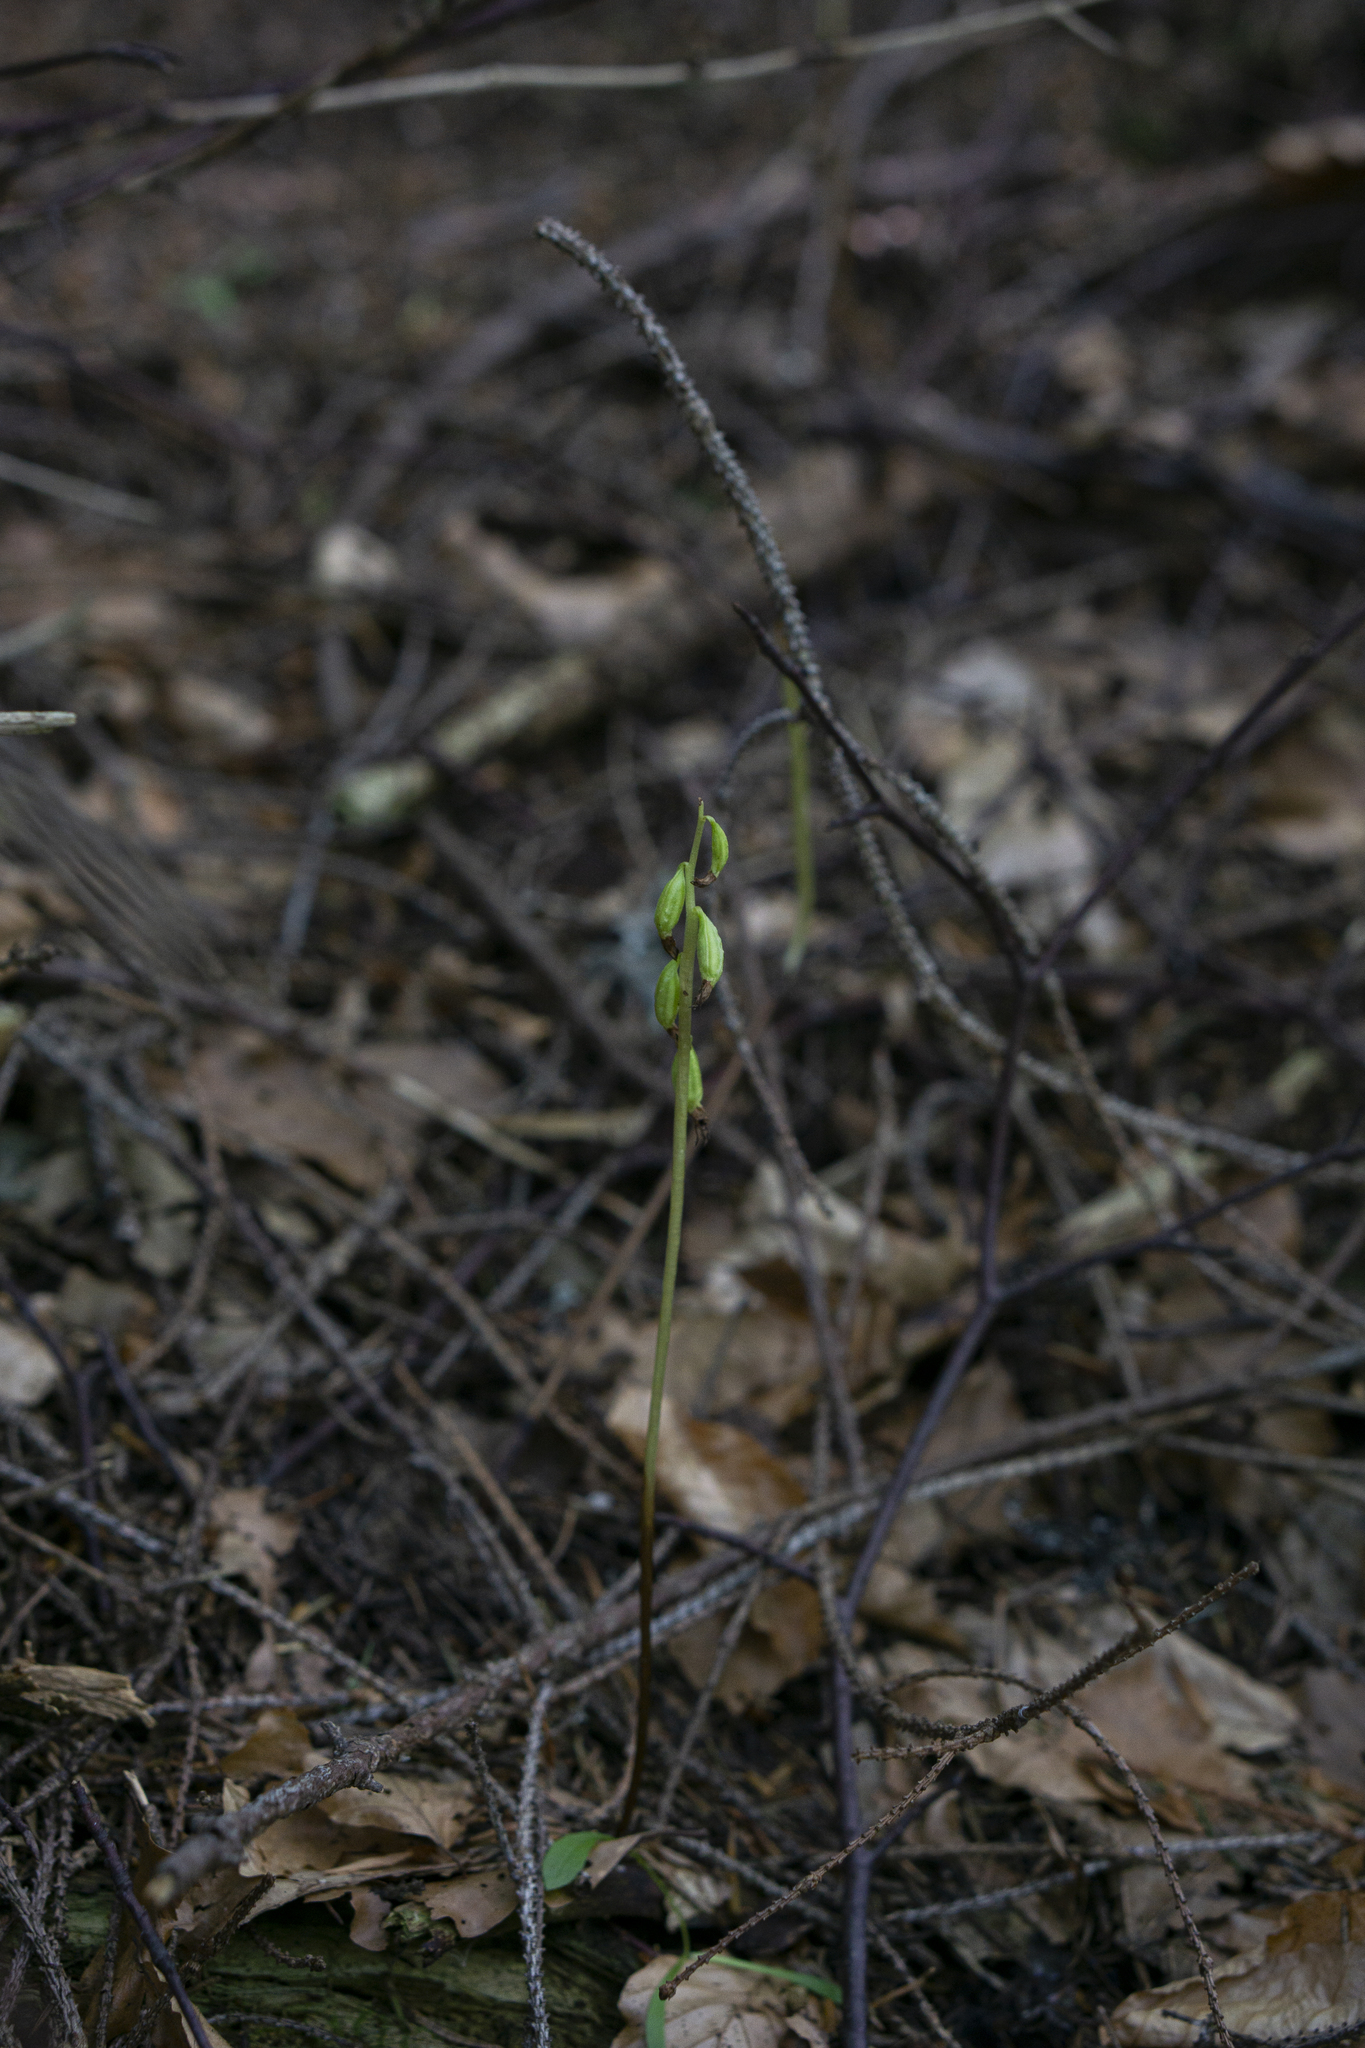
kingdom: Plantae
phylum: Tracheophyta
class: Liliopsida
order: Asparagales
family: Orchidaceae
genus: Corallorhiza
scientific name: Corallorhiza trifida
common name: Yellow coralroot
